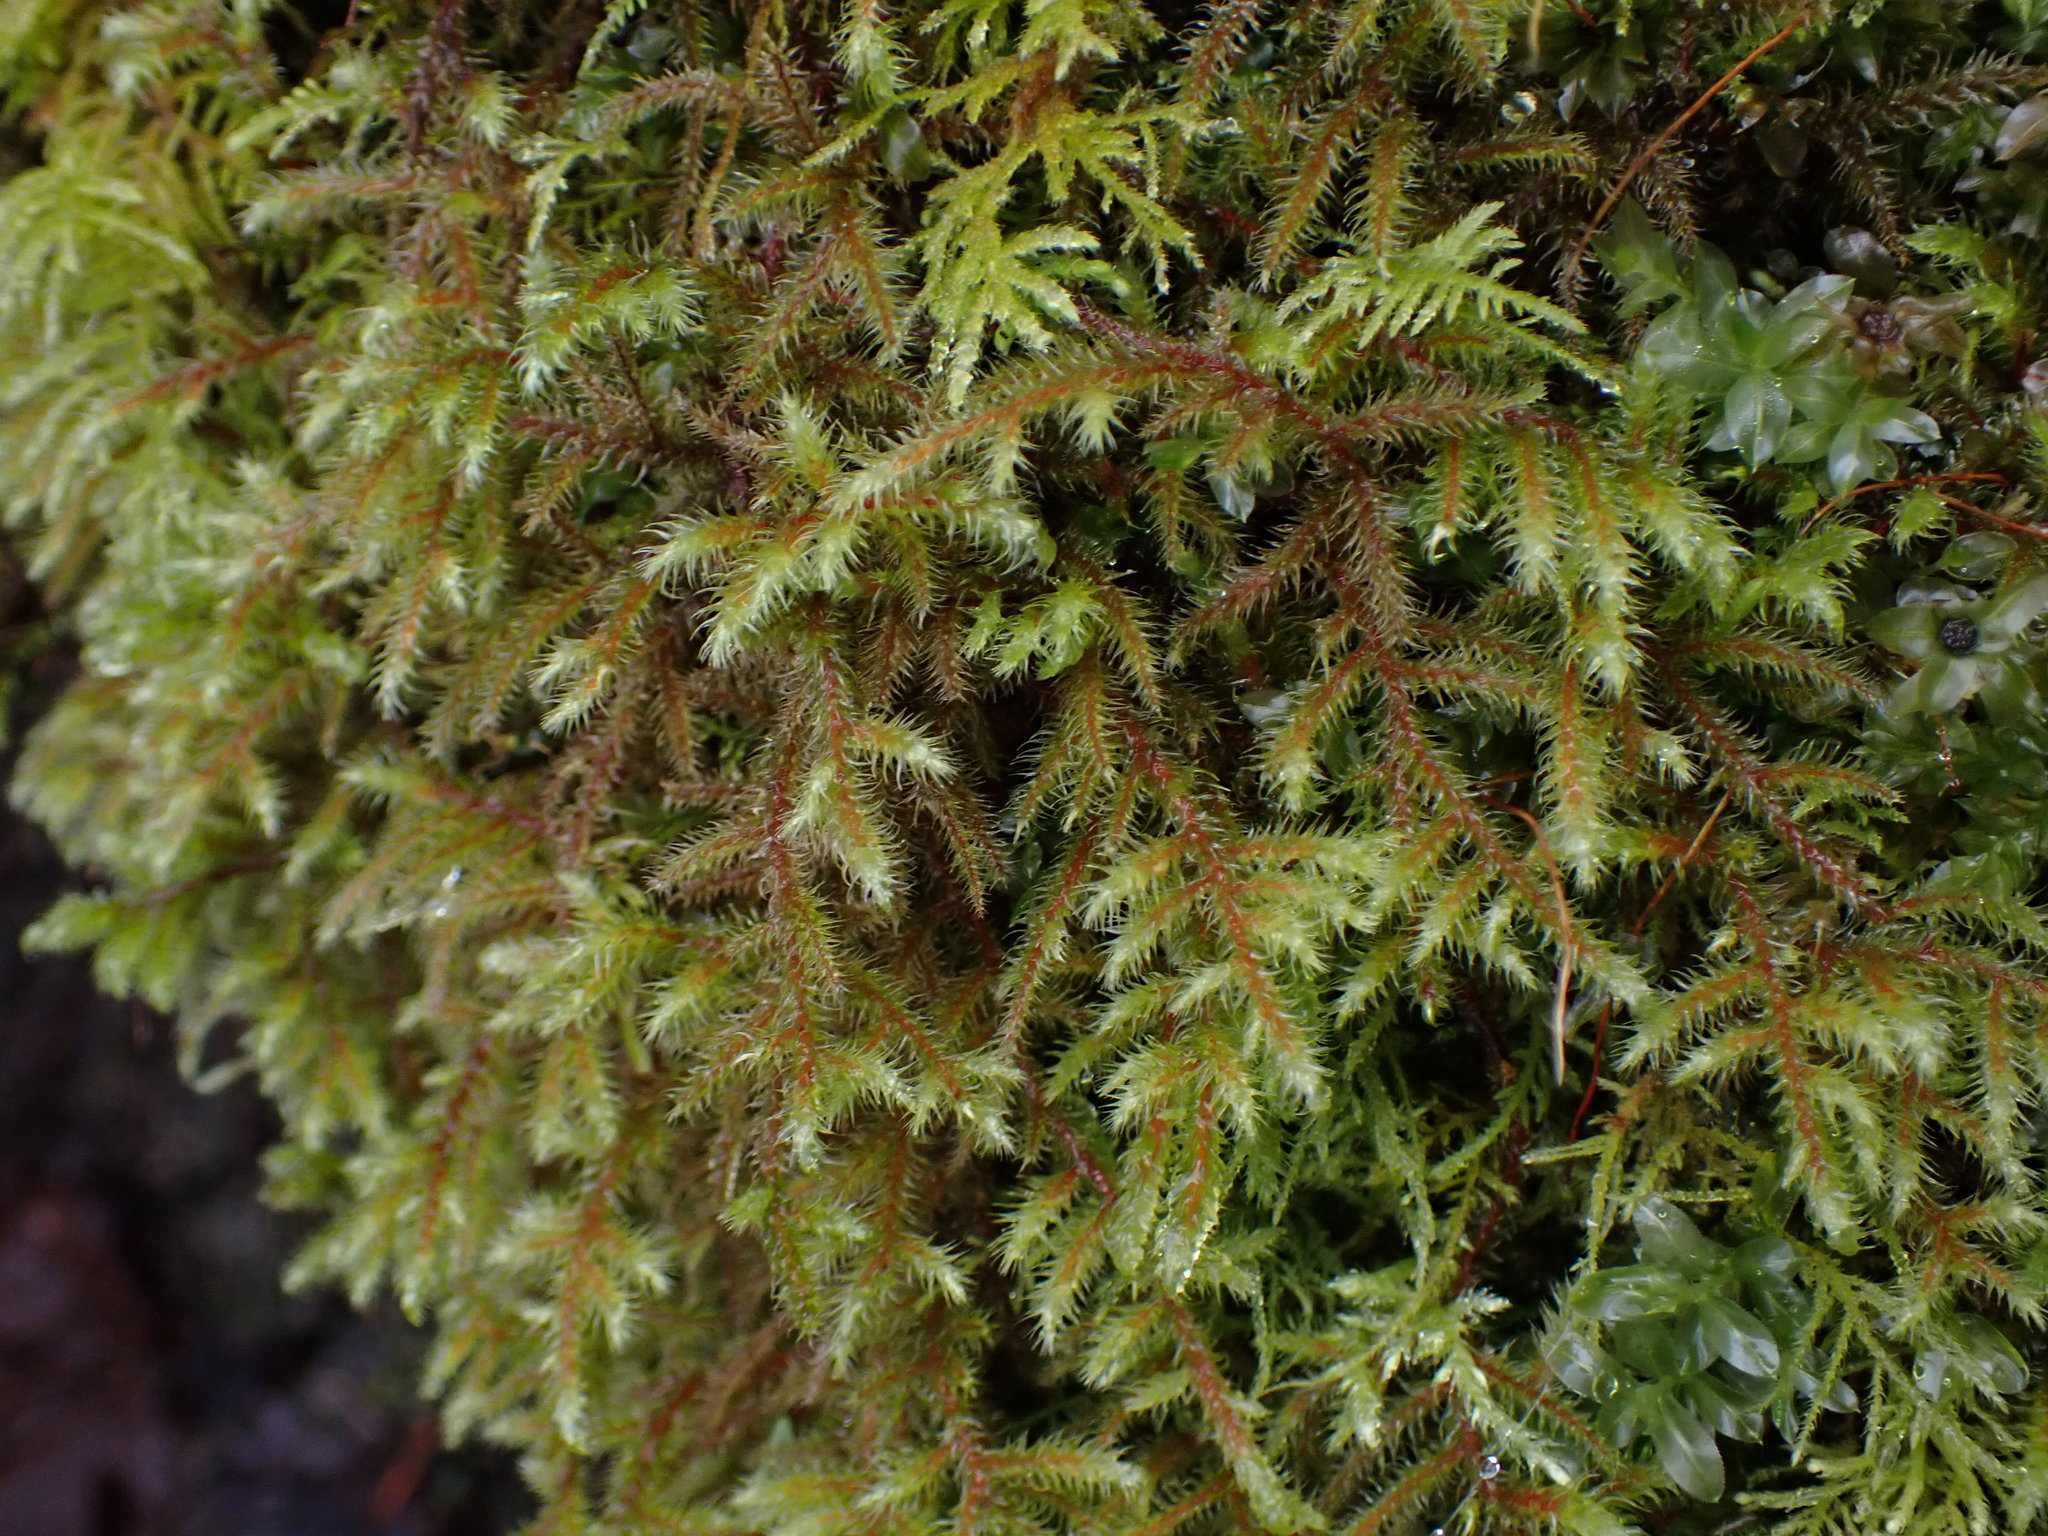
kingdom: Plantae
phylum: Bryophyta
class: Bryopsida
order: Hypnales
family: Hylocomiaceae
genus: Rhytidiadelphus
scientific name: Rhytidiadelphus loreus
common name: Lanky moss
